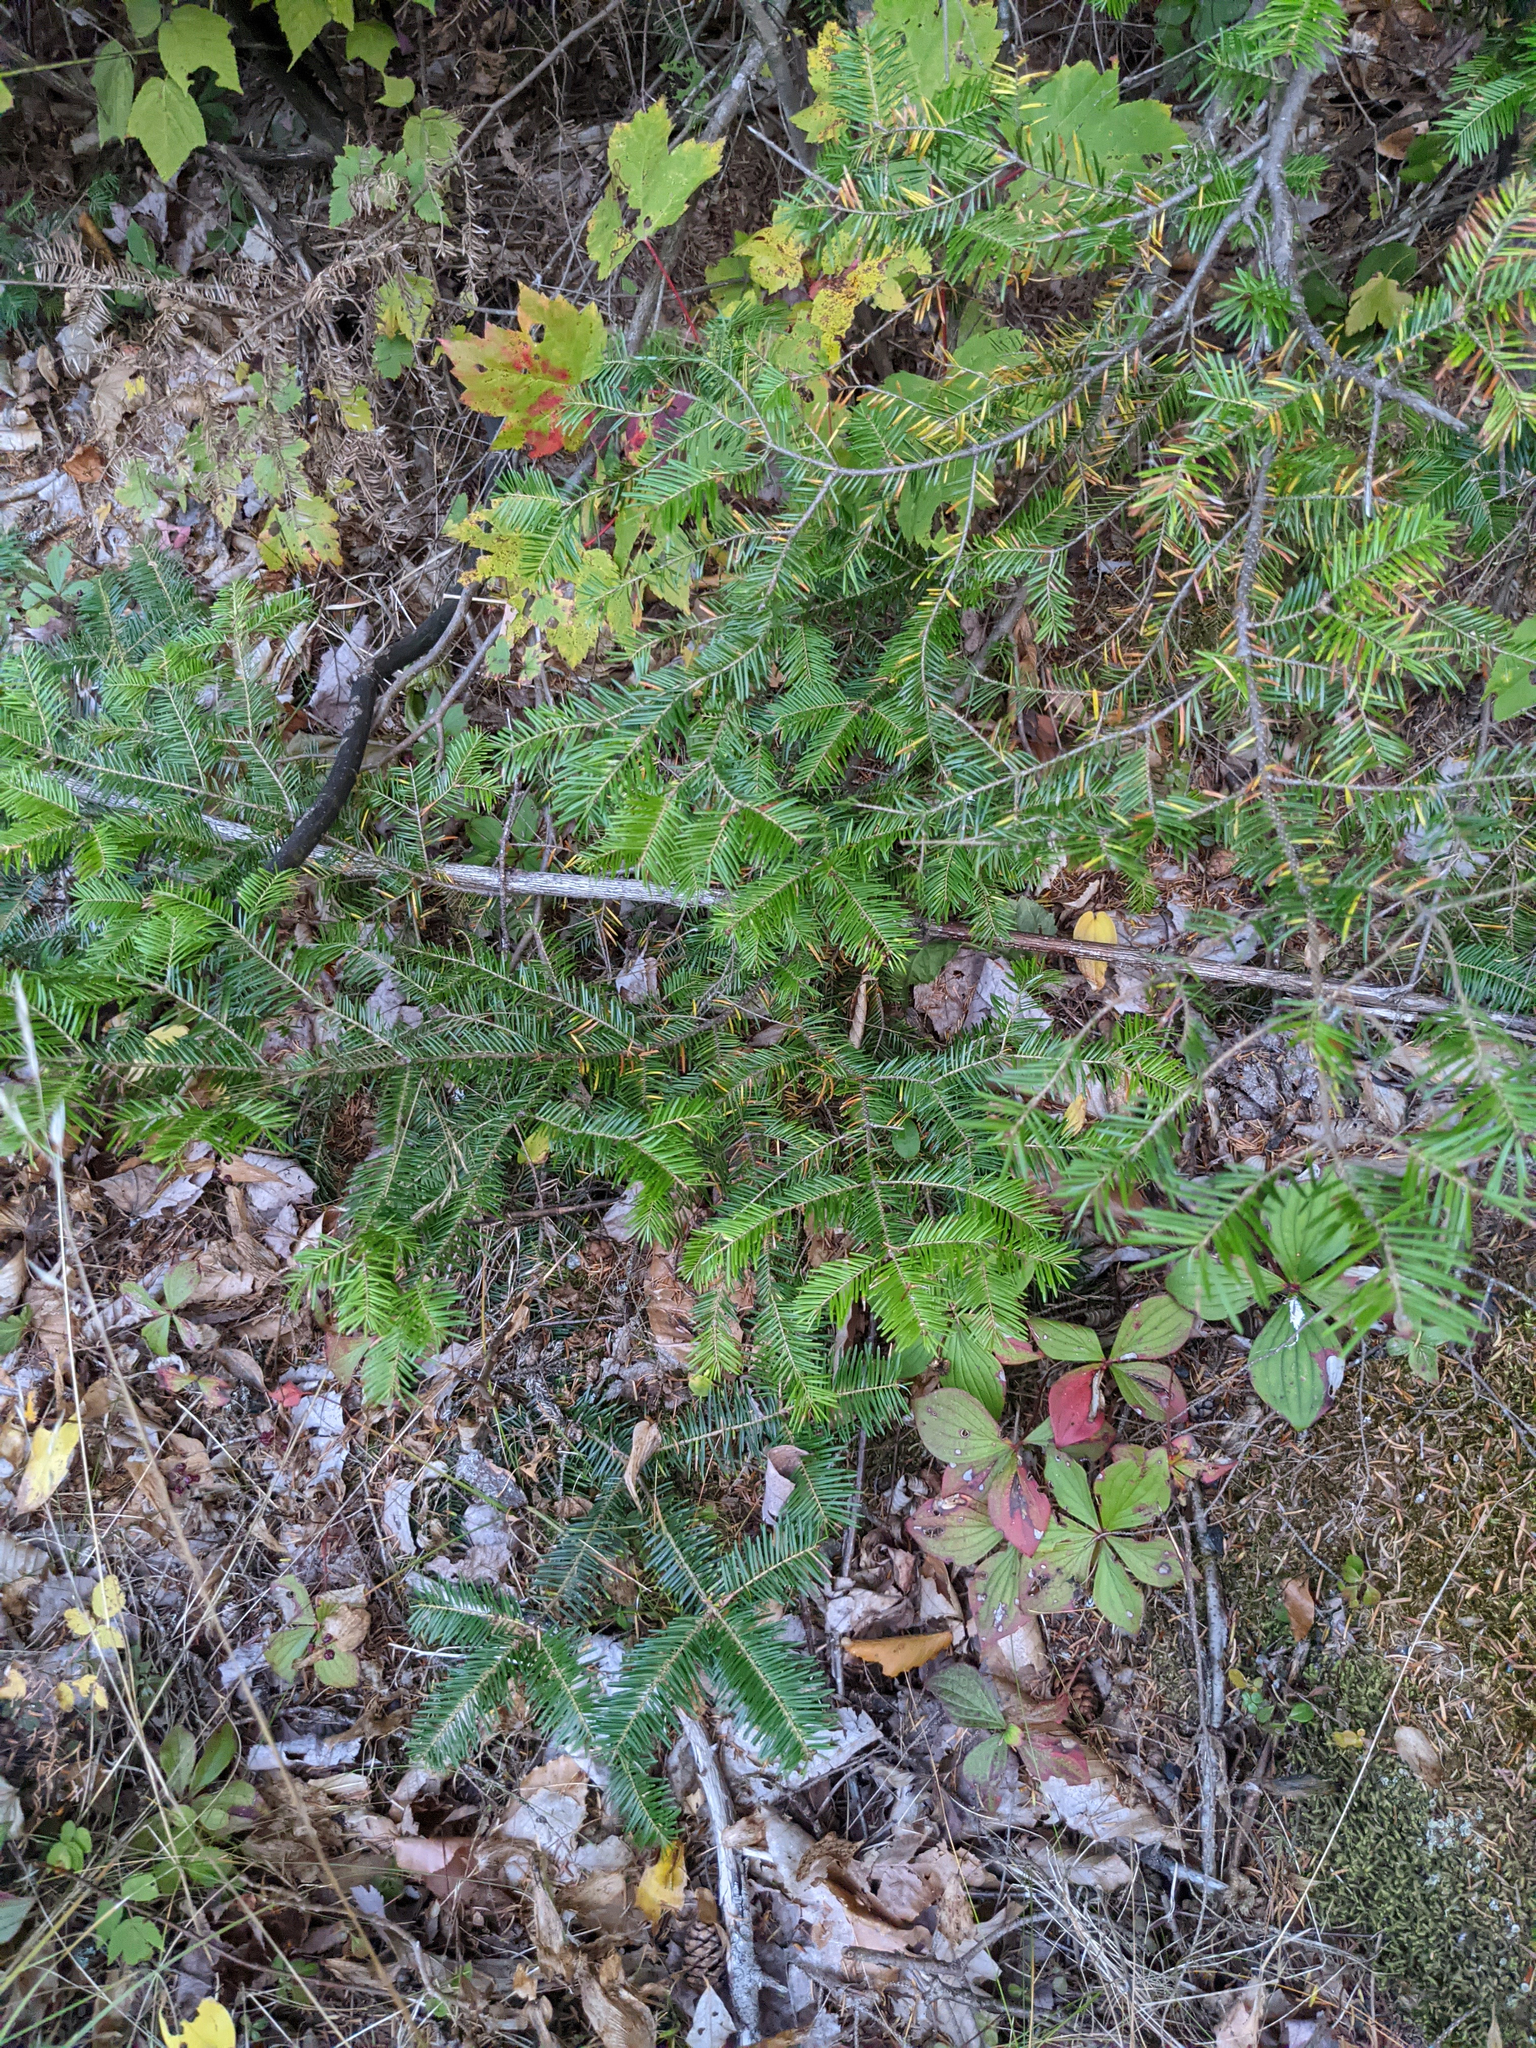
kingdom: Plantae
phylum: Tracheophyta
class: Pinopsida
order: Pinales
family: Pinaceae
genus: Abies
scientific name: Abies balsamea
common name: Balsam fir
